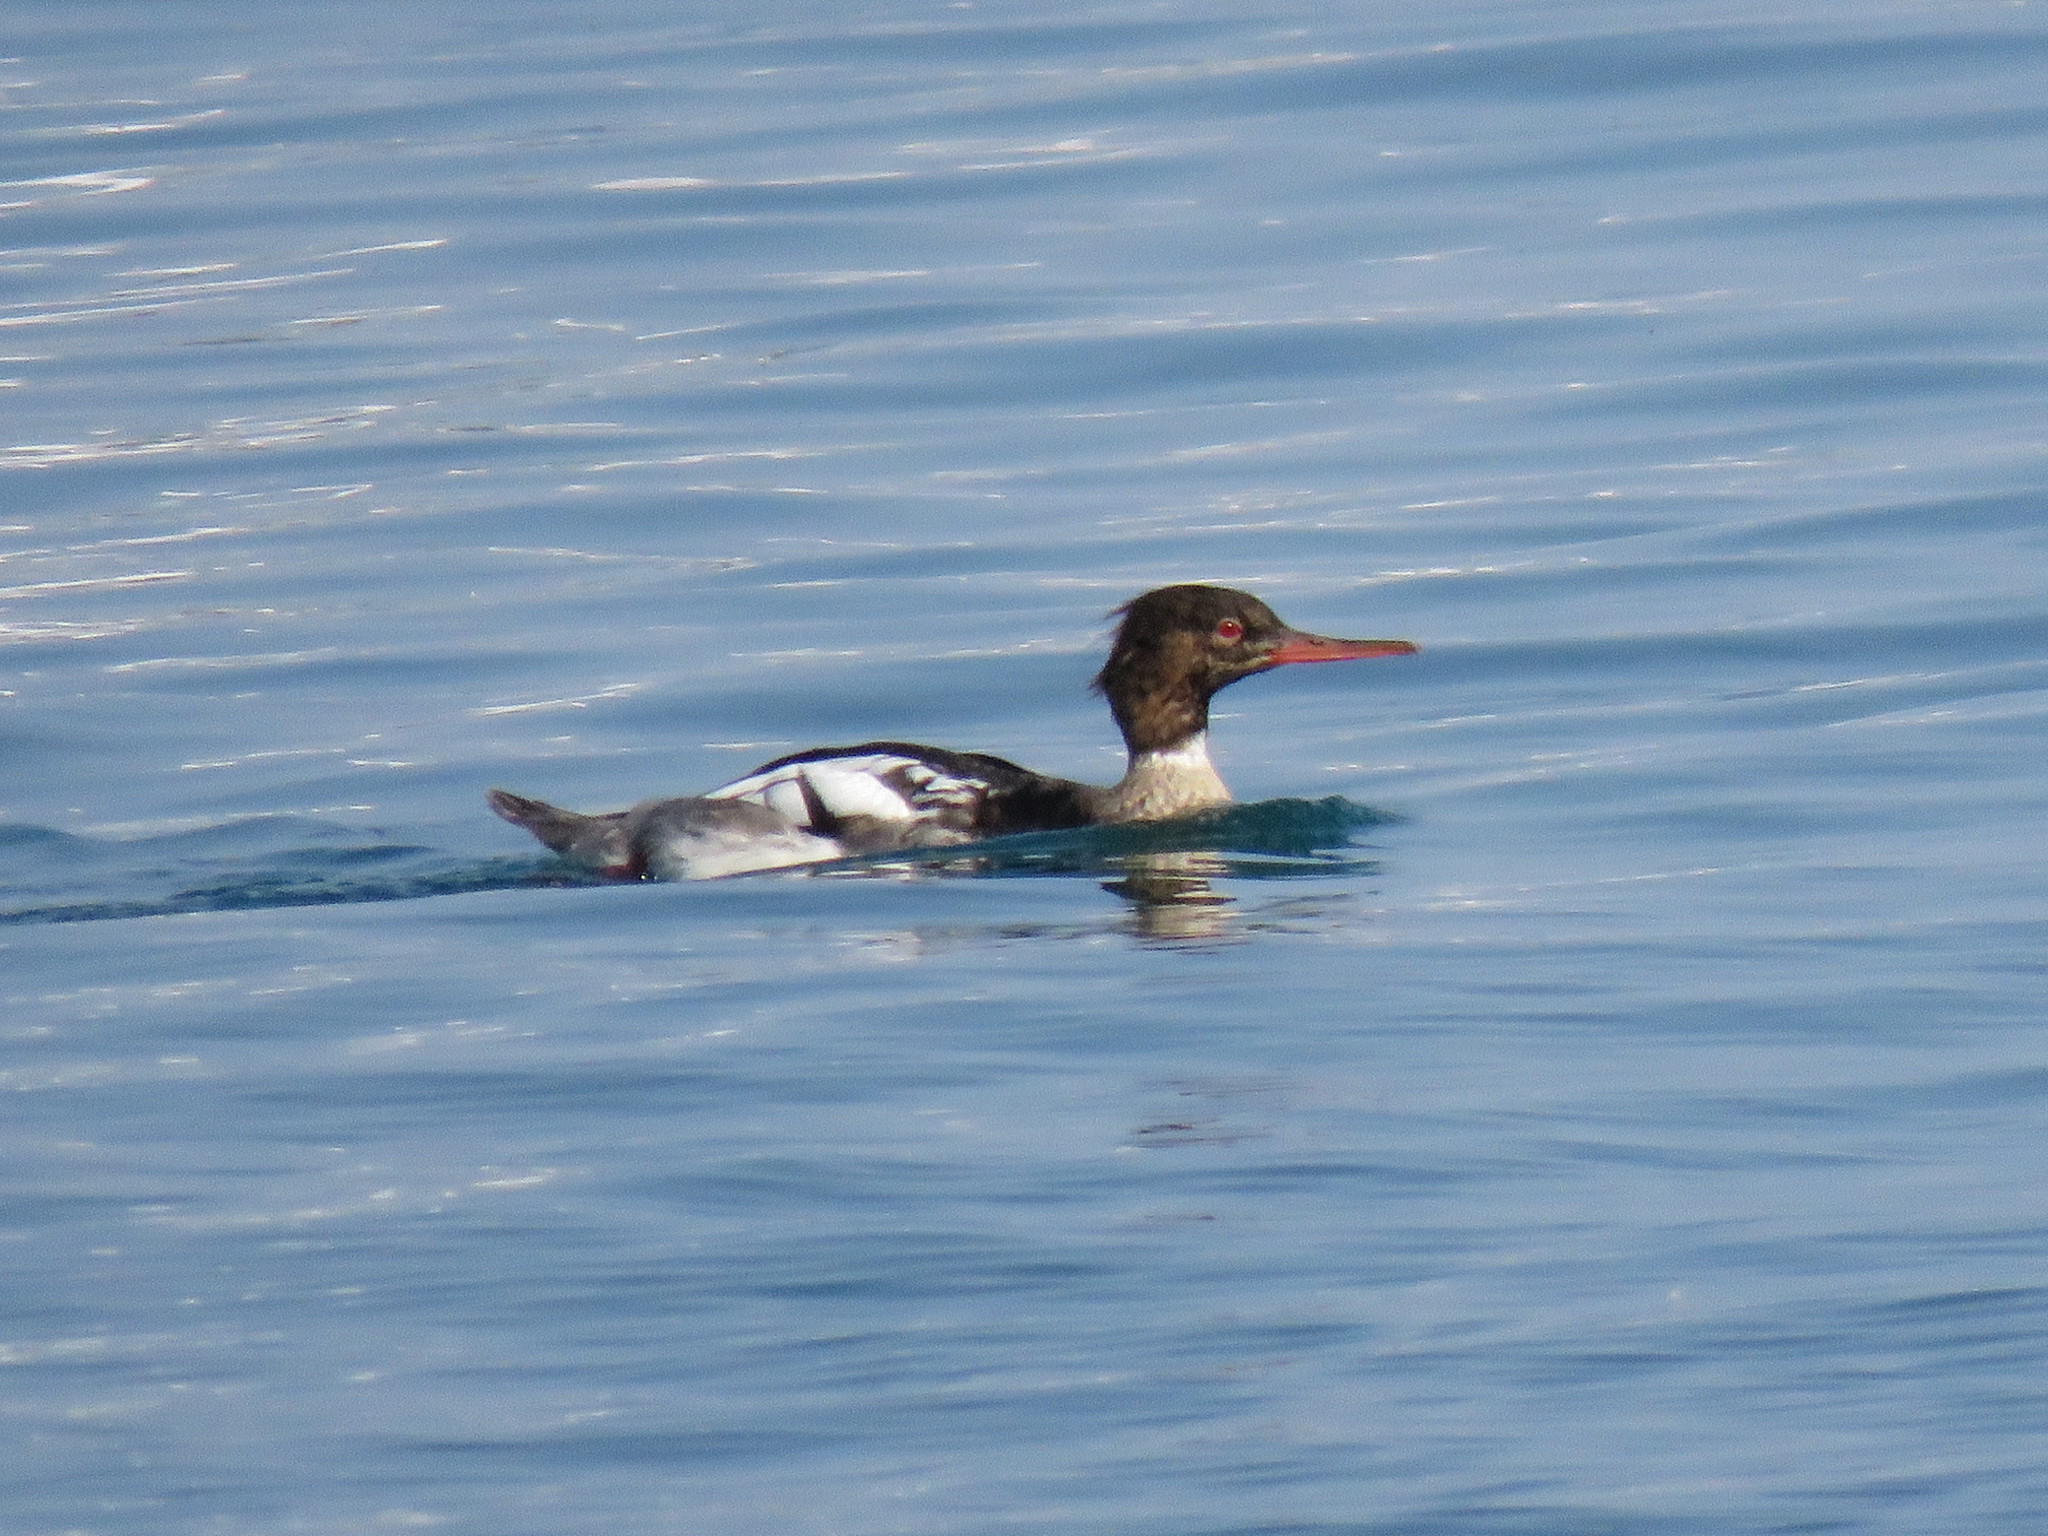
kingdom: Animalia
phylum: Chordata
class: Aves
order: Anseriformes
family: Anatidae
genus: Mergus
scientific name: Mergus serrator
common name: Red-breasted merganser
